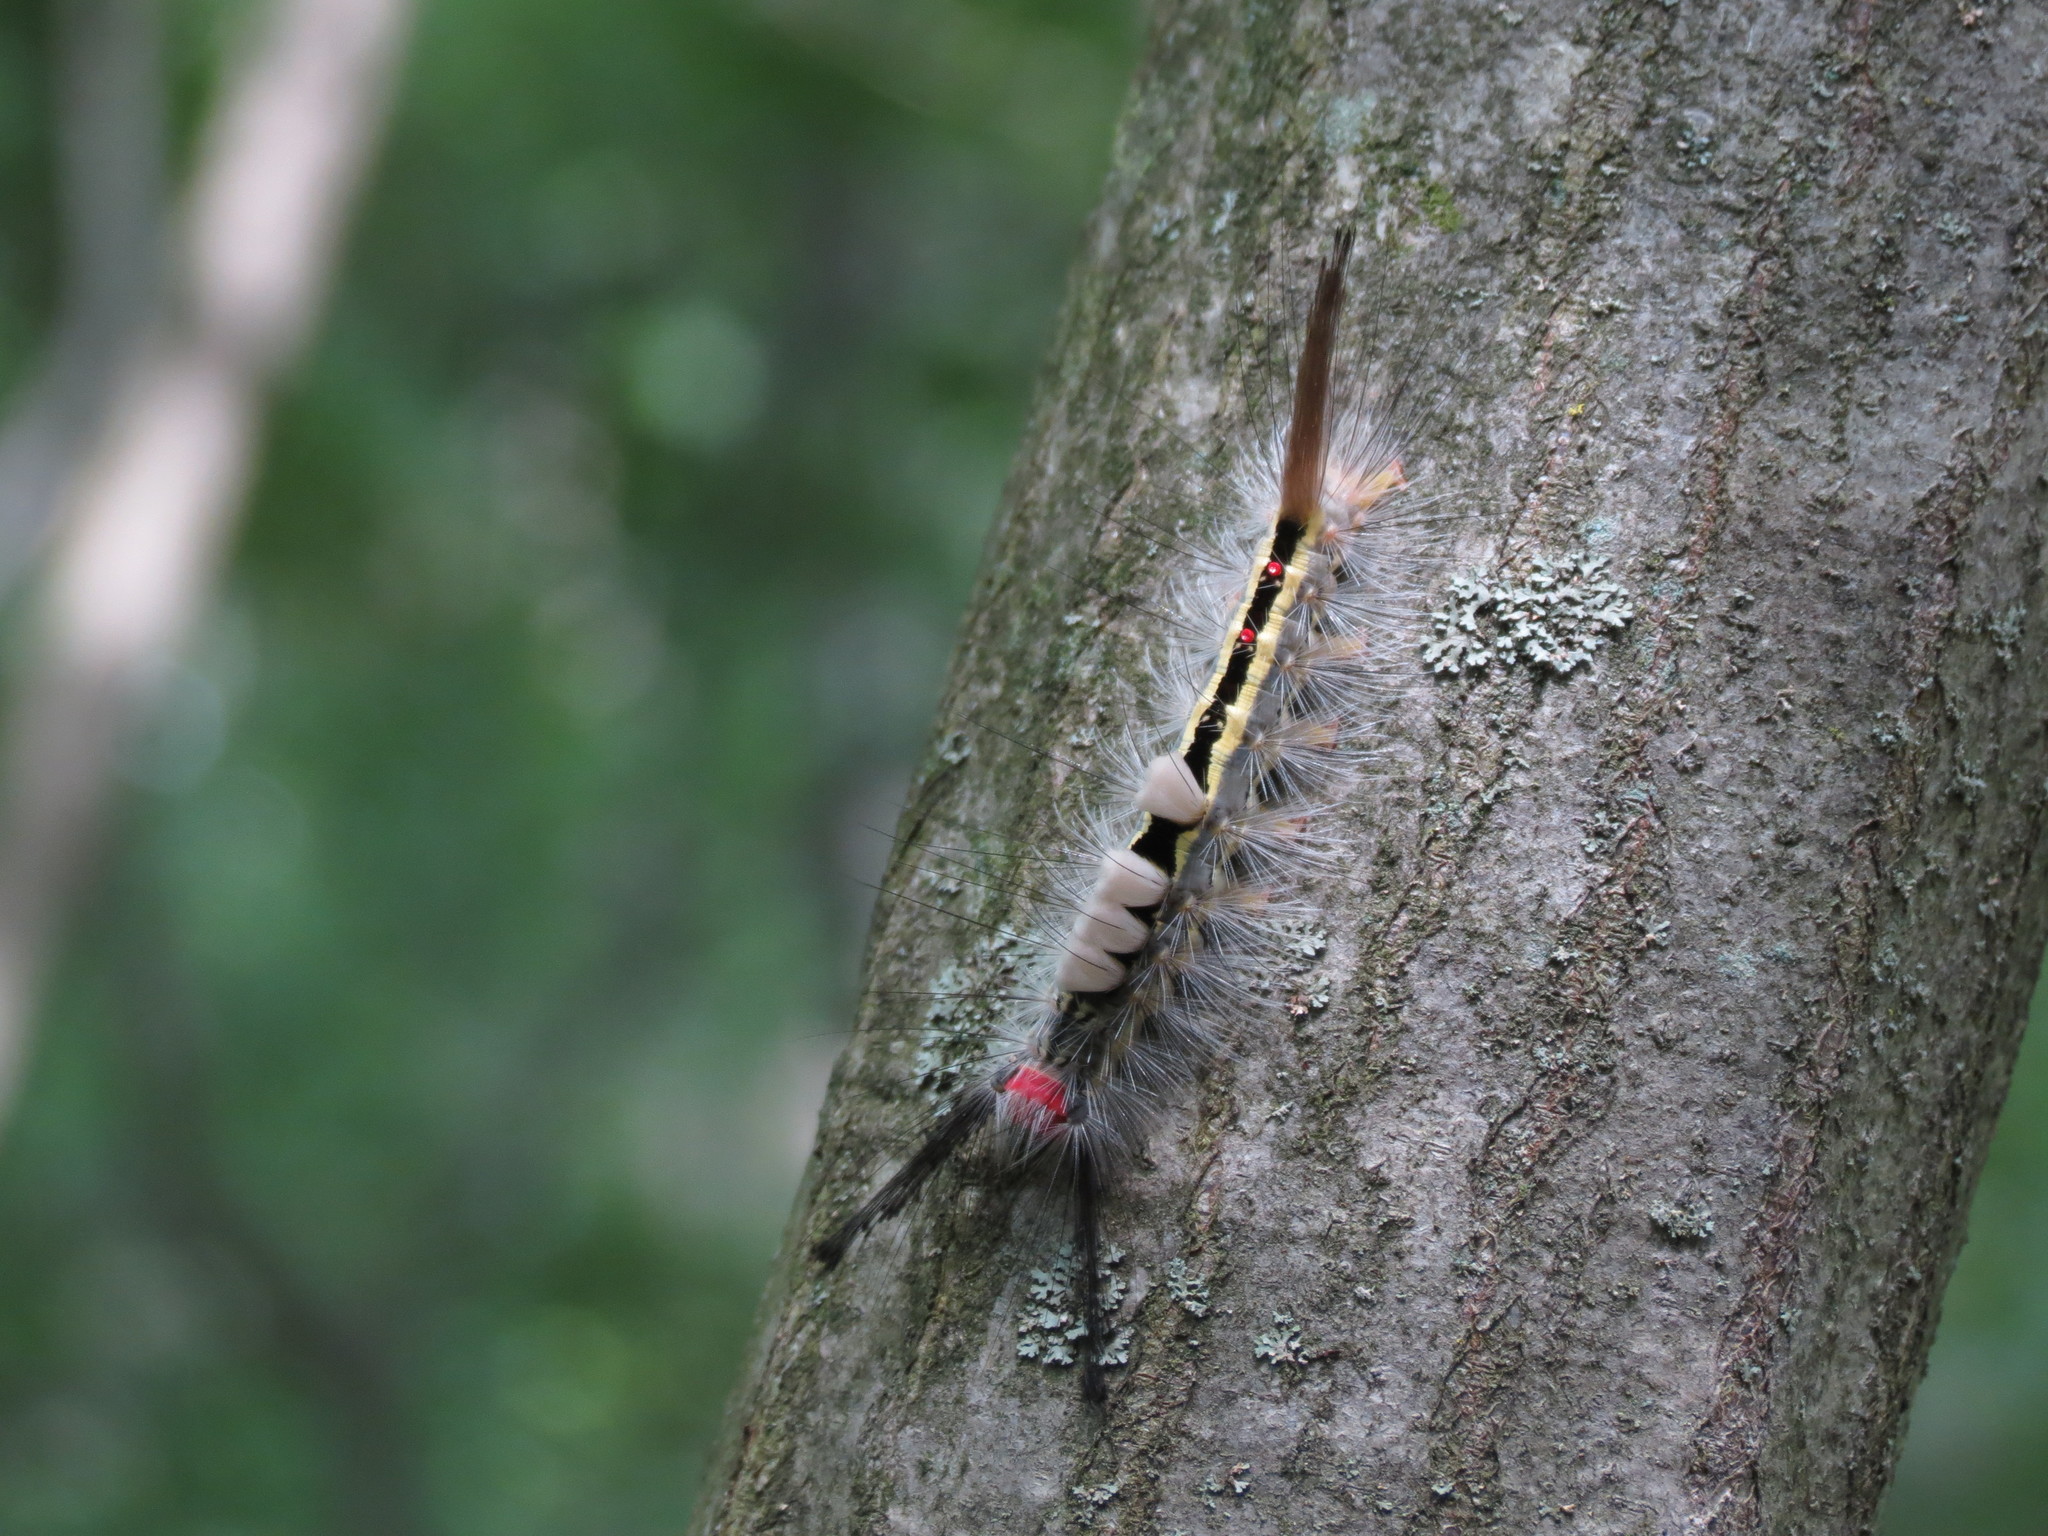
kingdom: Animalia
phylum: Arthropoda
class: Insecta
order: Lepidoptera
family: Erebidae
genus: Orgyia
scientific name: Orgyia leucostigma
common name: White-marked tussock moth
